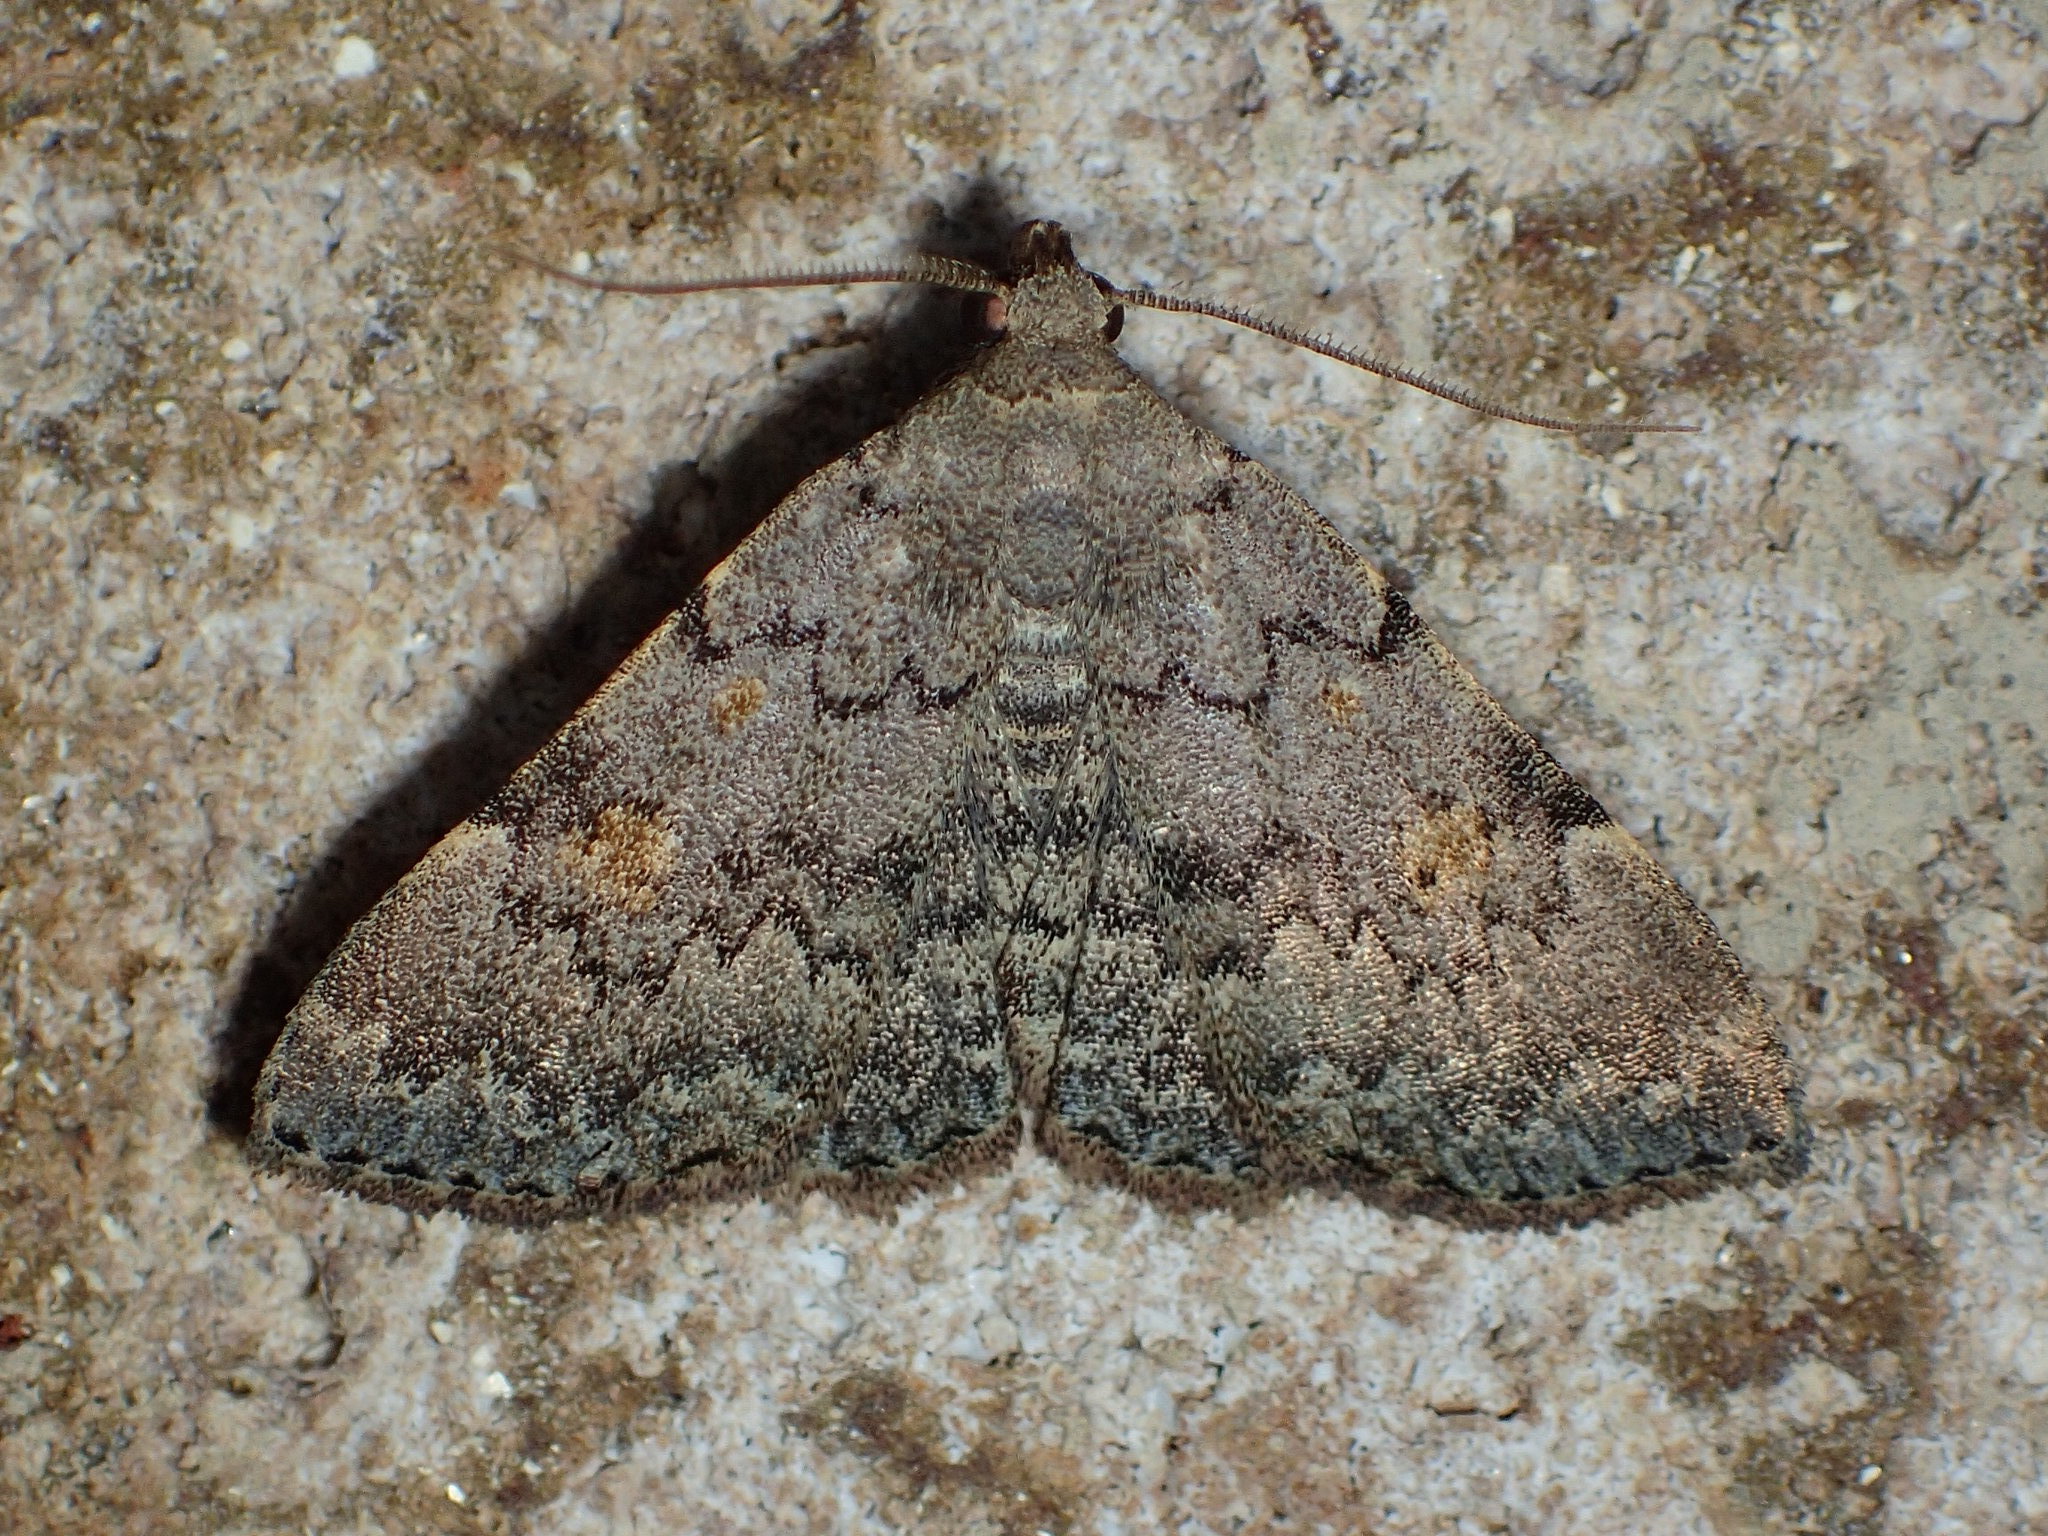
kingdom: Animalia
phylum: Arthropoda
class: Insecta
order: Lepidoptera
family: Erebidae
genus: Idia
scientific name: Idia aemula
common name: Common idia moth
